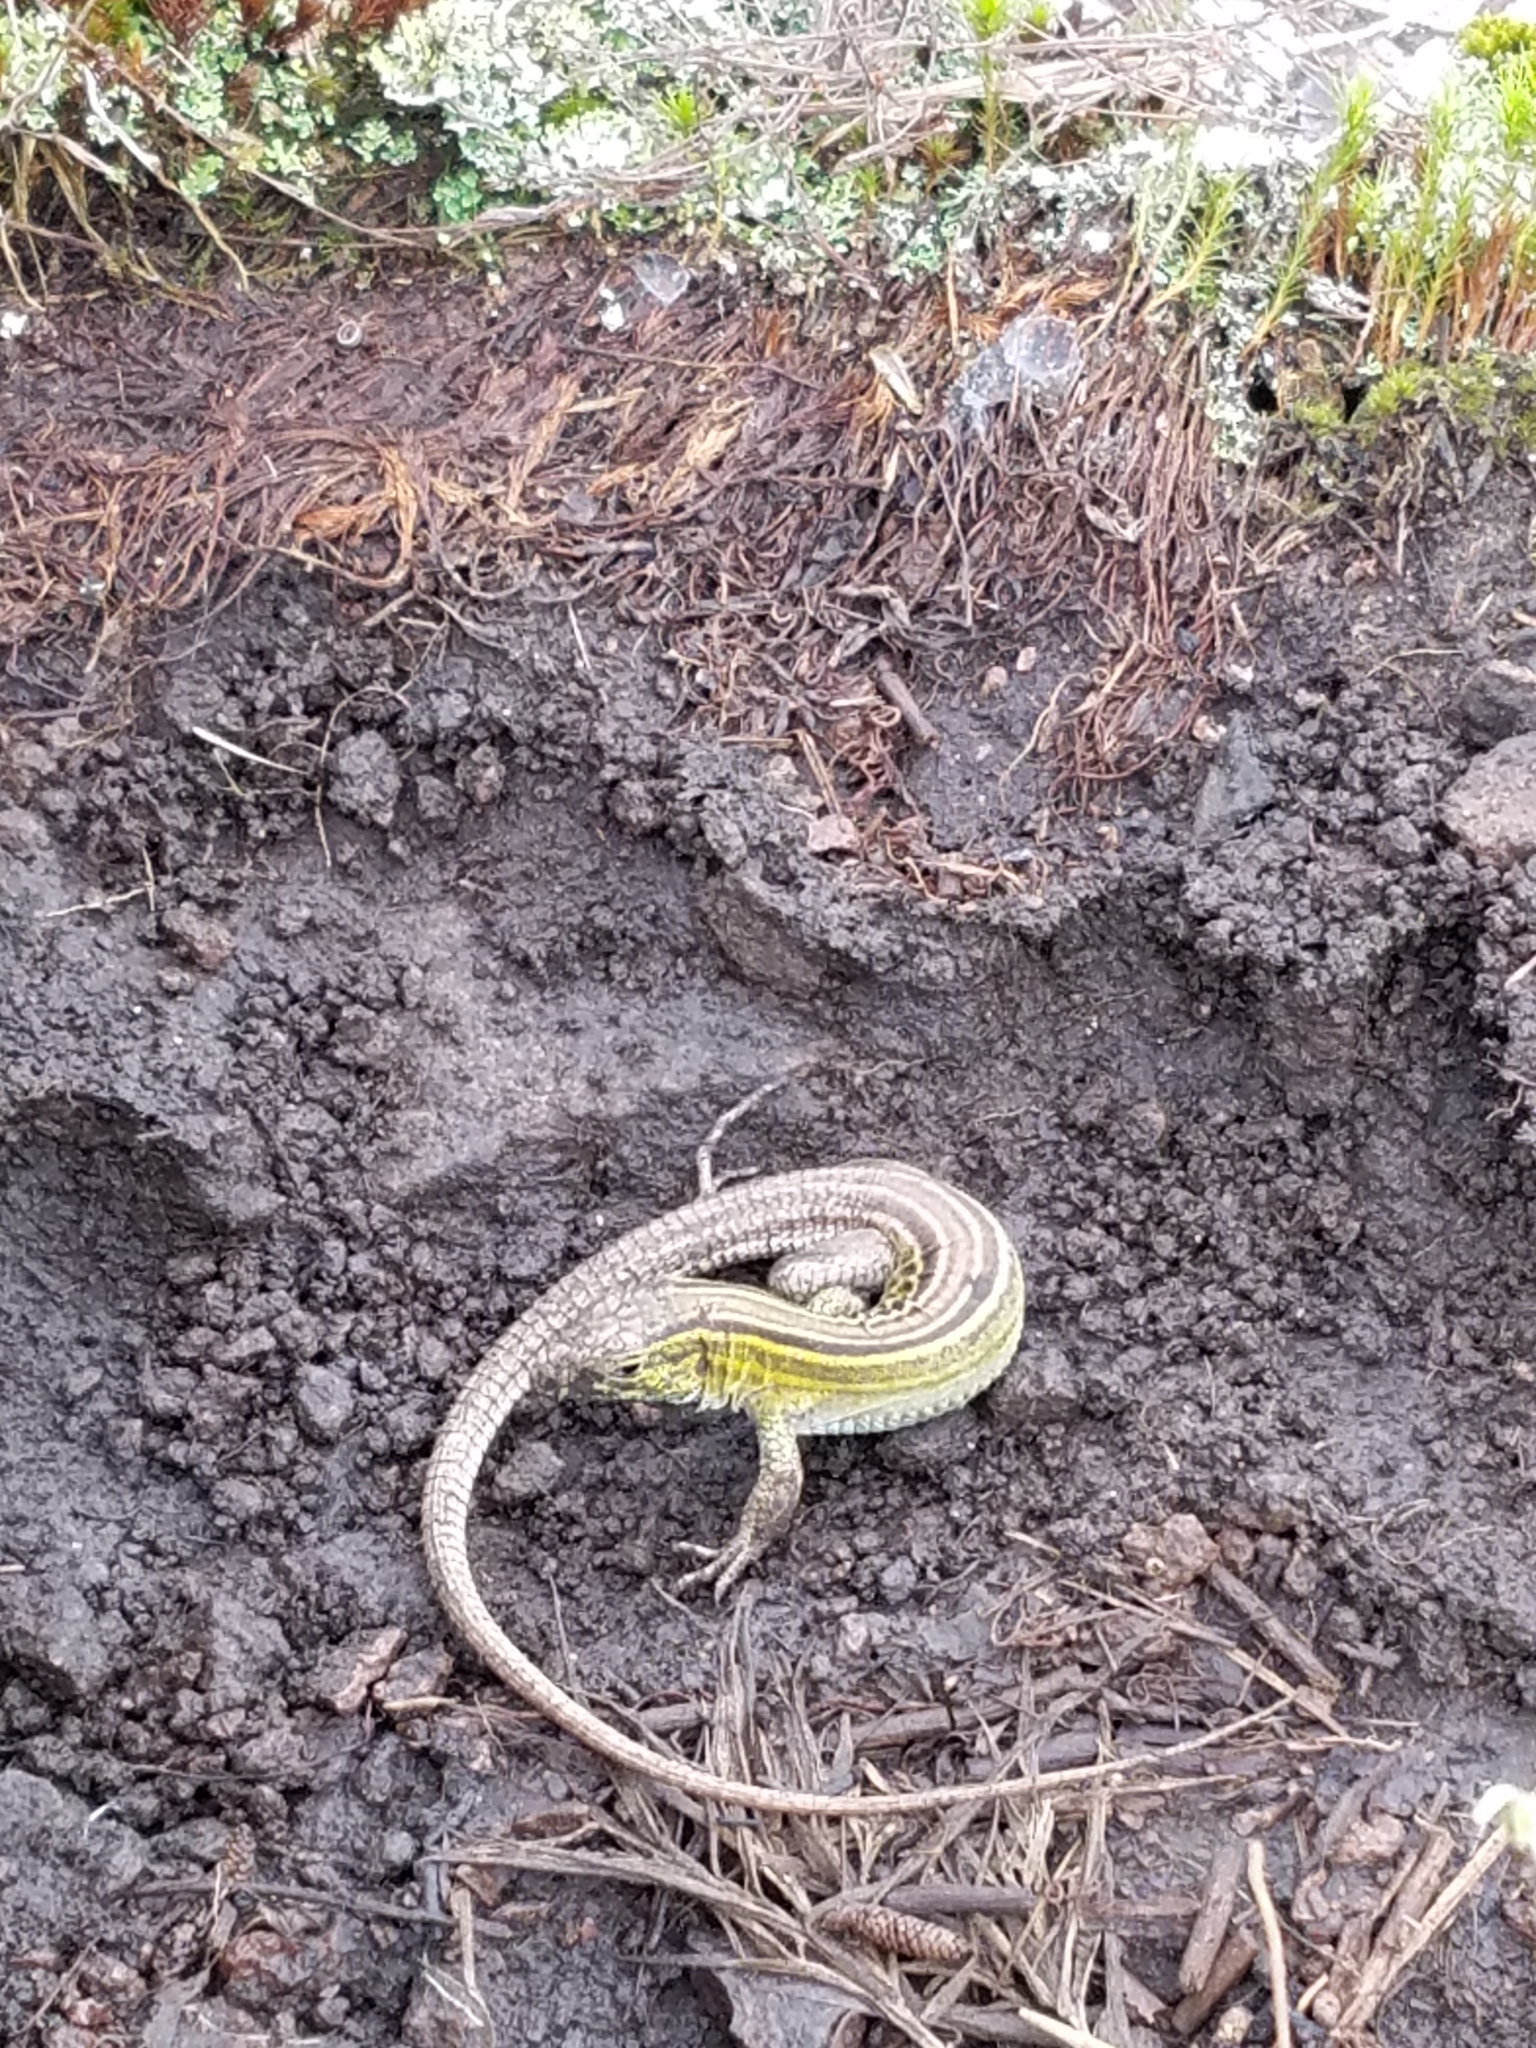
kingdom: Animalia
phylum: Chordata
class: Squamata
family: Teiidae
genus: Aspidoscelis
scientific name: Aspidoscelis sexlineatus
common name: Six-lined racerunner
